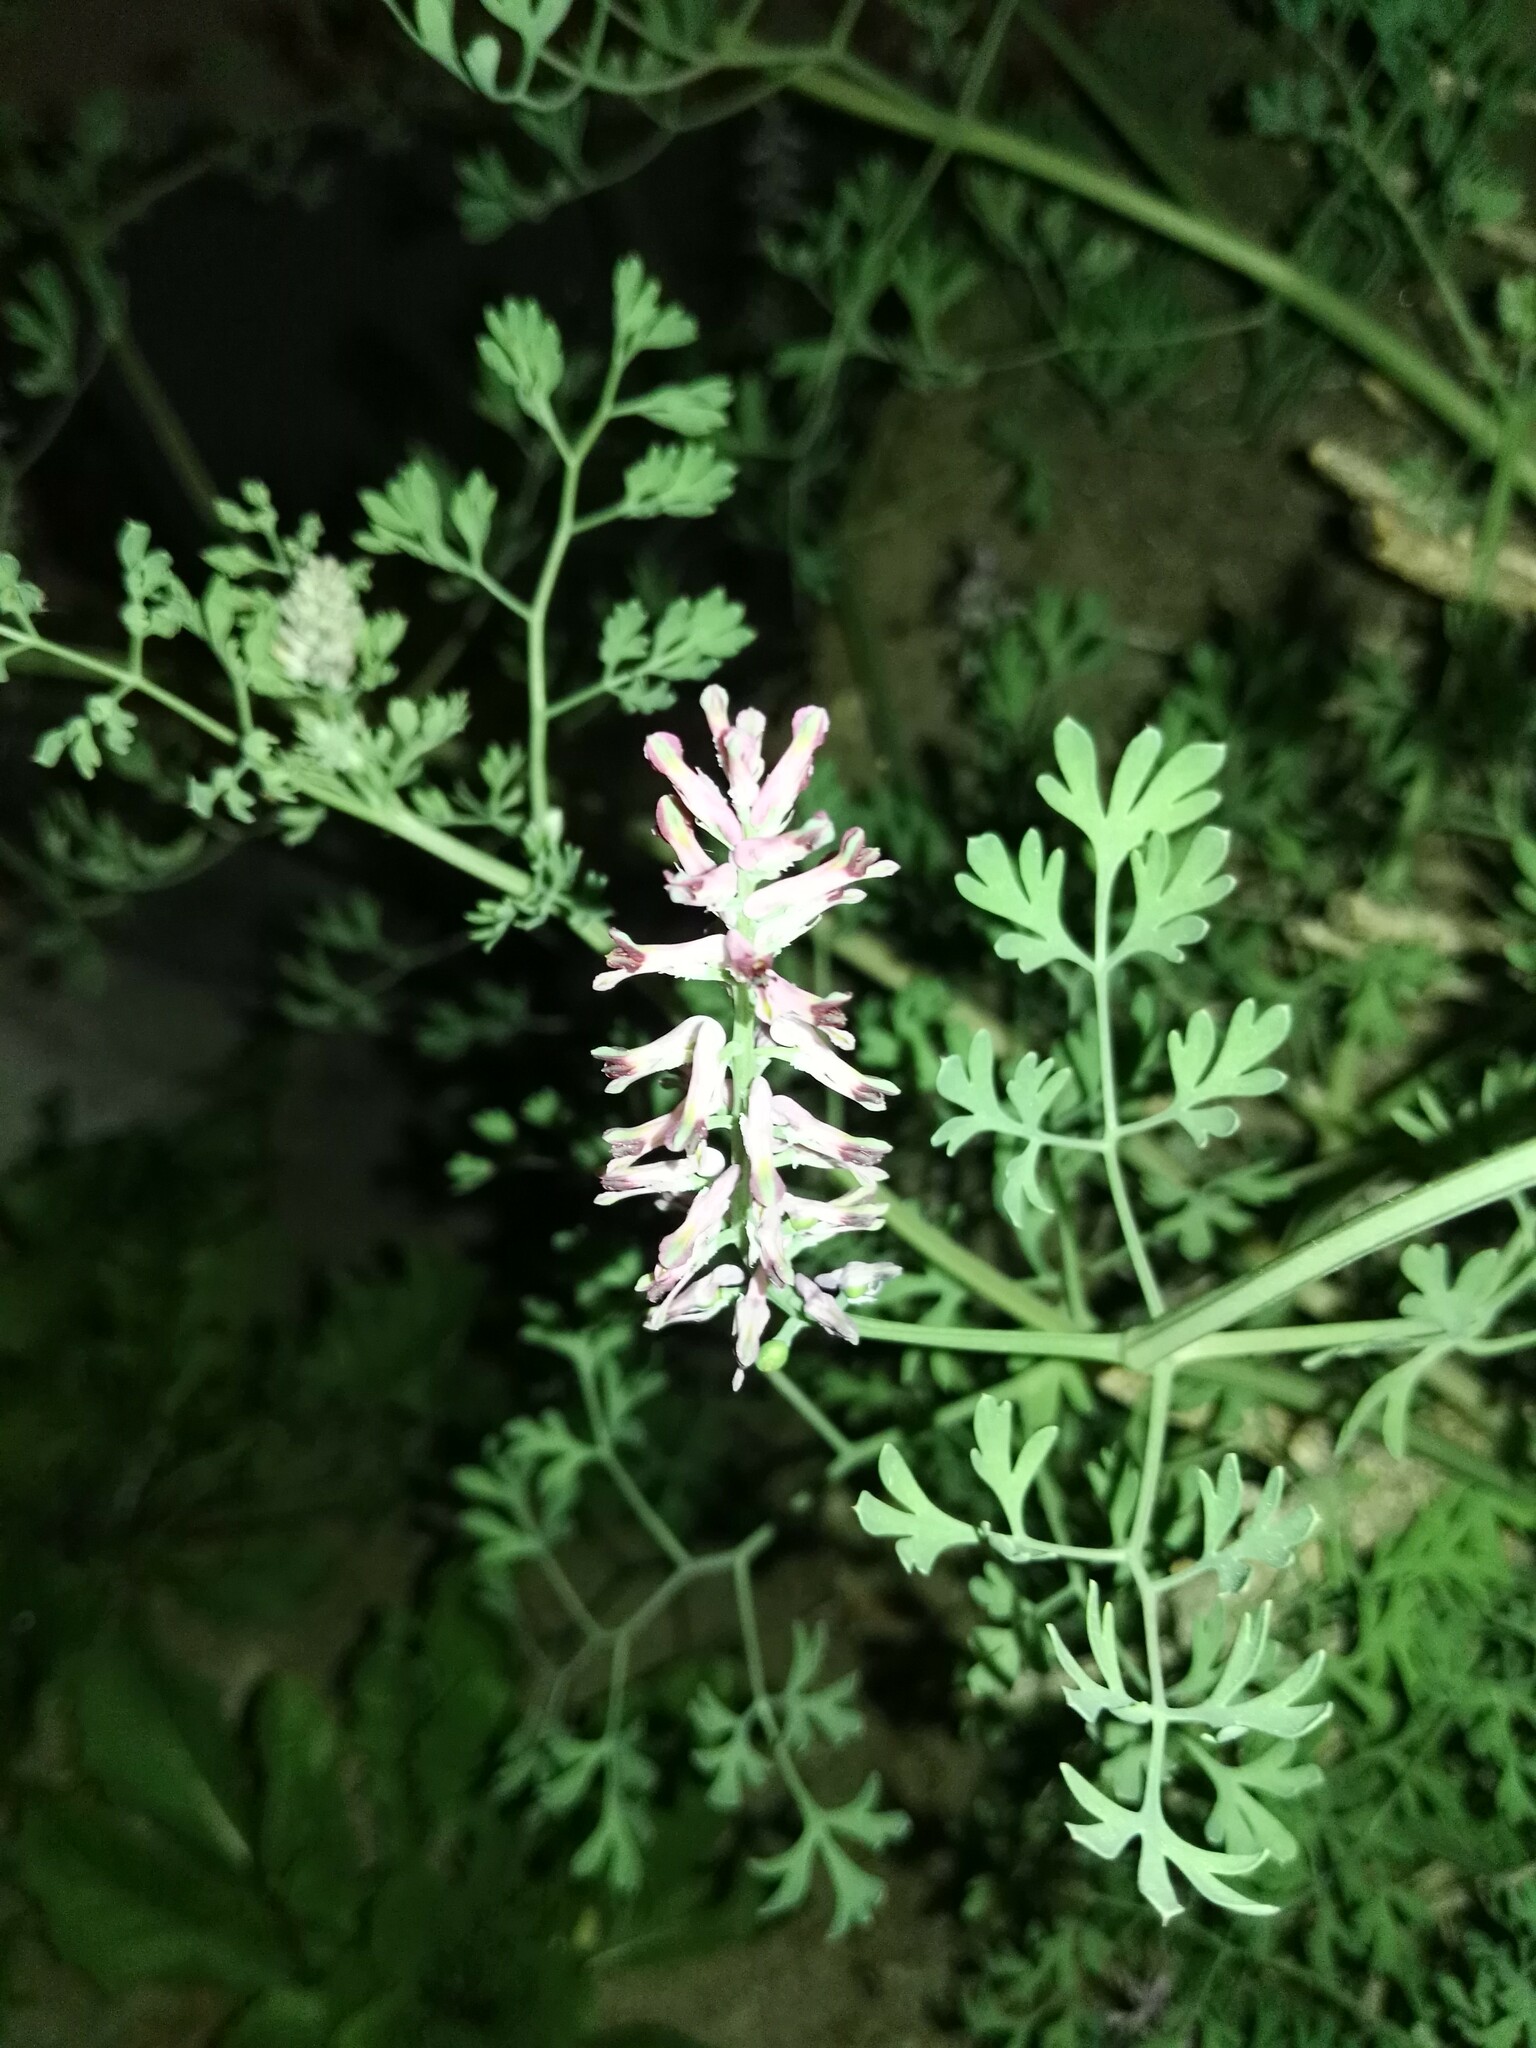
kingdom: Plantae
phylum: Tracheophyta
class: Magnoliopsida
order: Ranunculales
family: Papaveraceae
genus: Fumaria
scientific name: Fumaria officinalis
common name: Common fumitory
